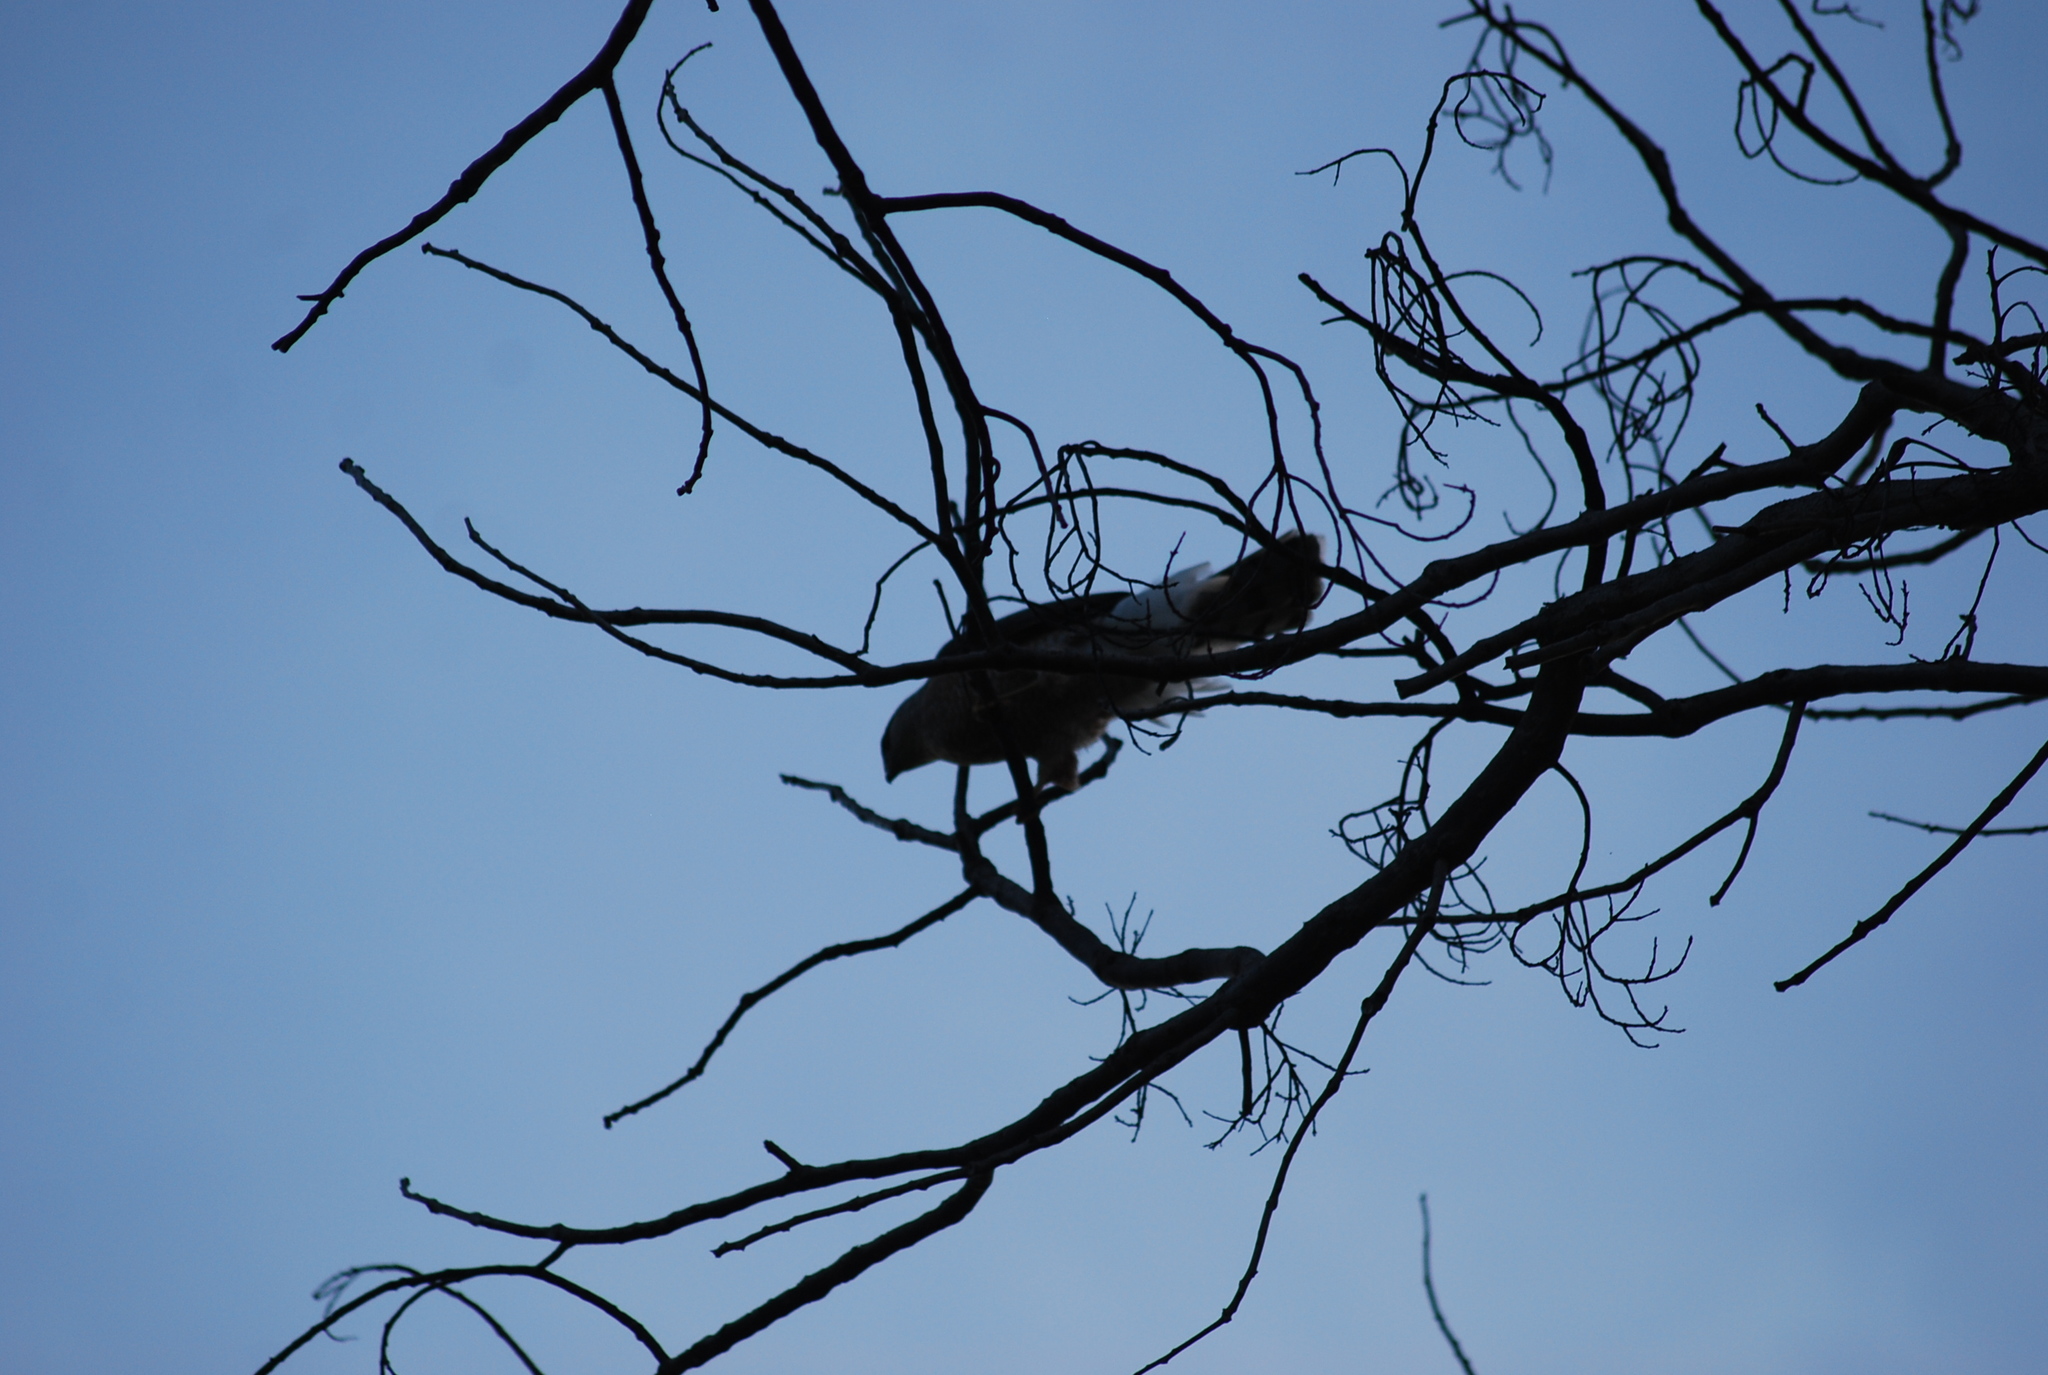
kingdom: Animalia
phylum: Chordata
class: Aves
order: Accipitriformes
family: Accipitridae
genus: Accipiter
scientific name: Accipiter cooperii
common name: Cooper's hawk
